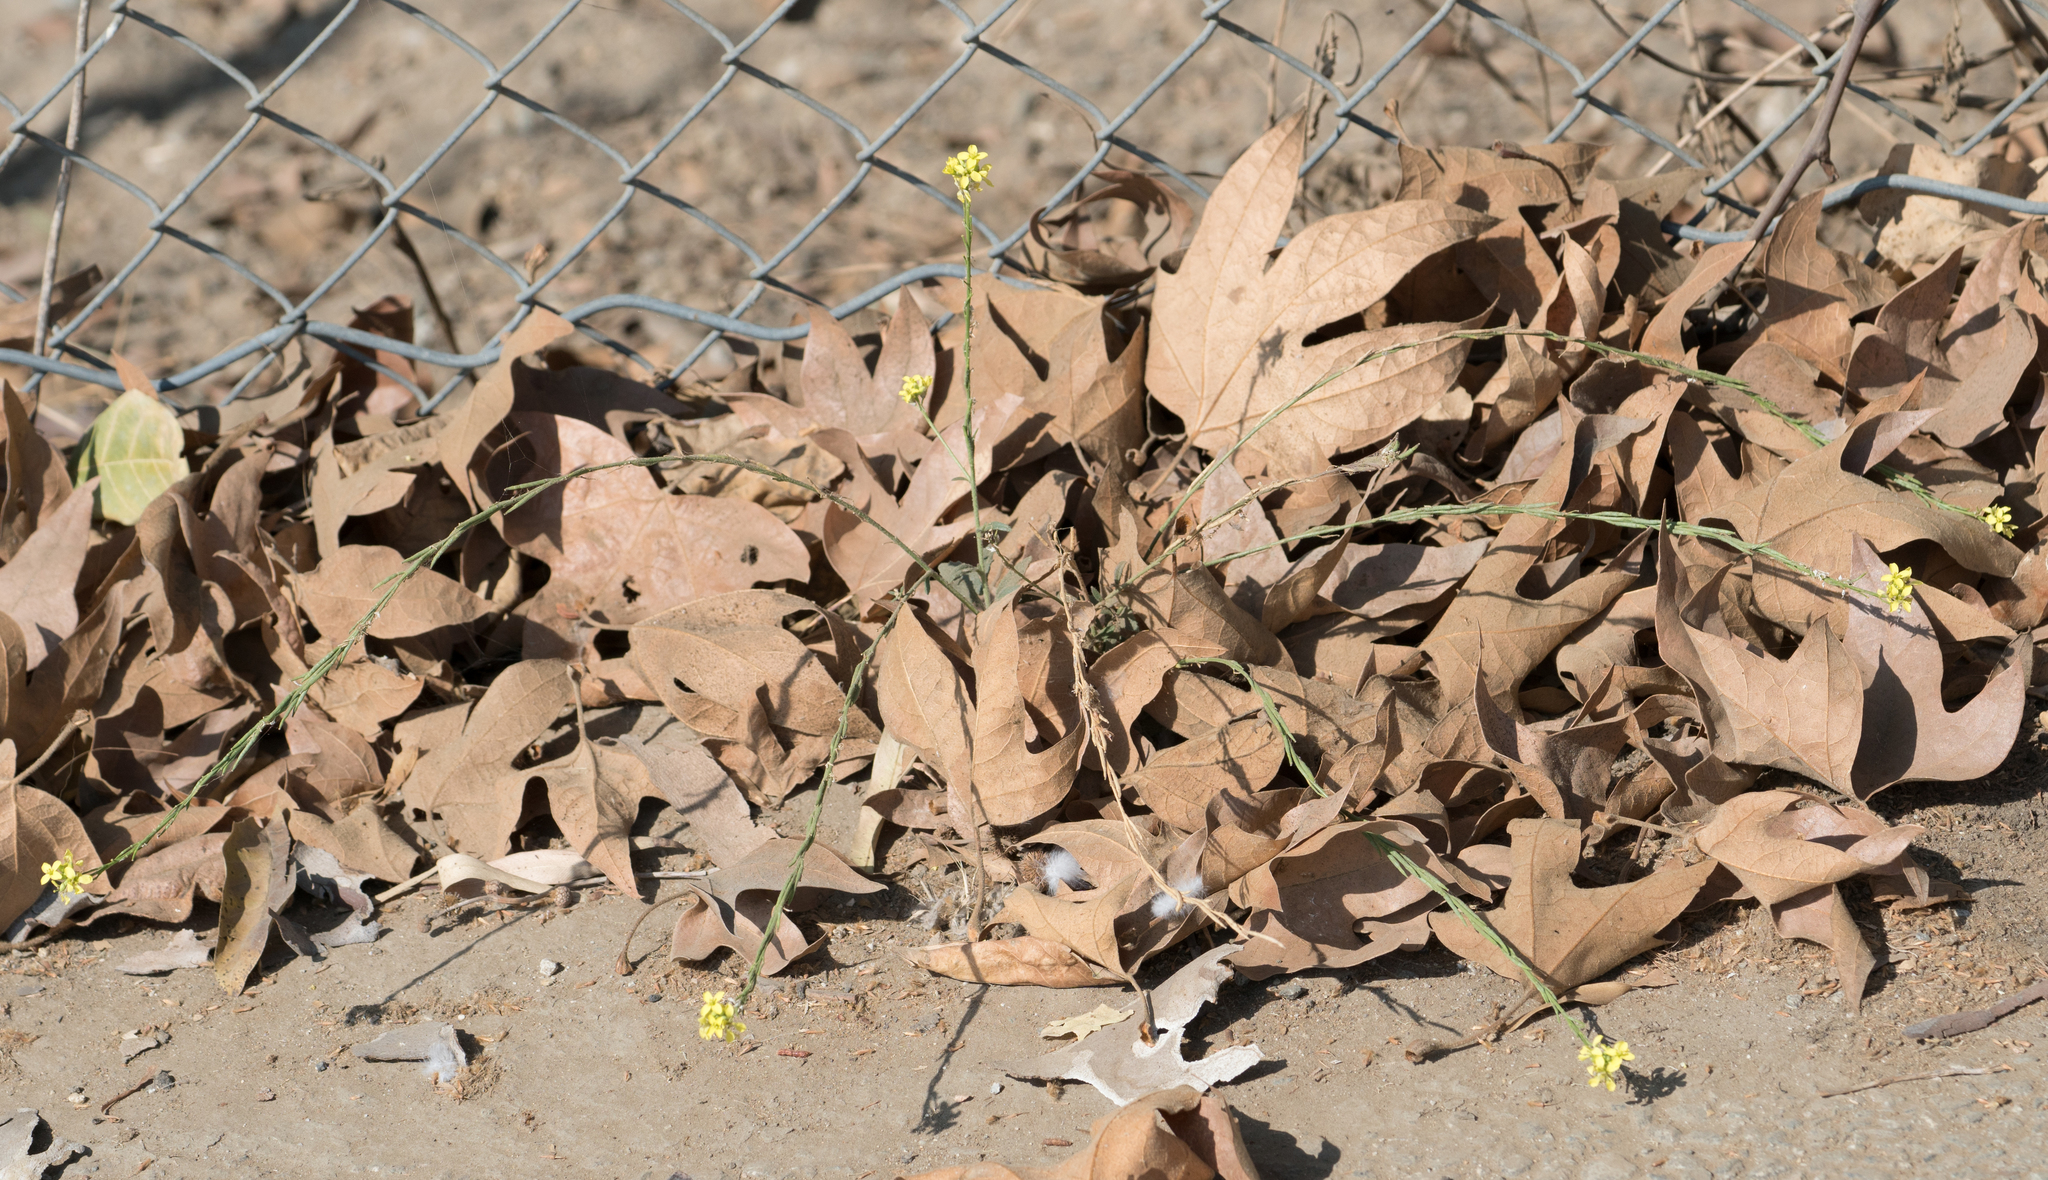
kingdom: Plantae
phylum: Tracheophyta
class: Magnoliopsida
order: Brassicales
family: Brassicaceae
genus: Hirschfeldia
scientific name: Hirschfeldia incana
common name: Hoary mustard
